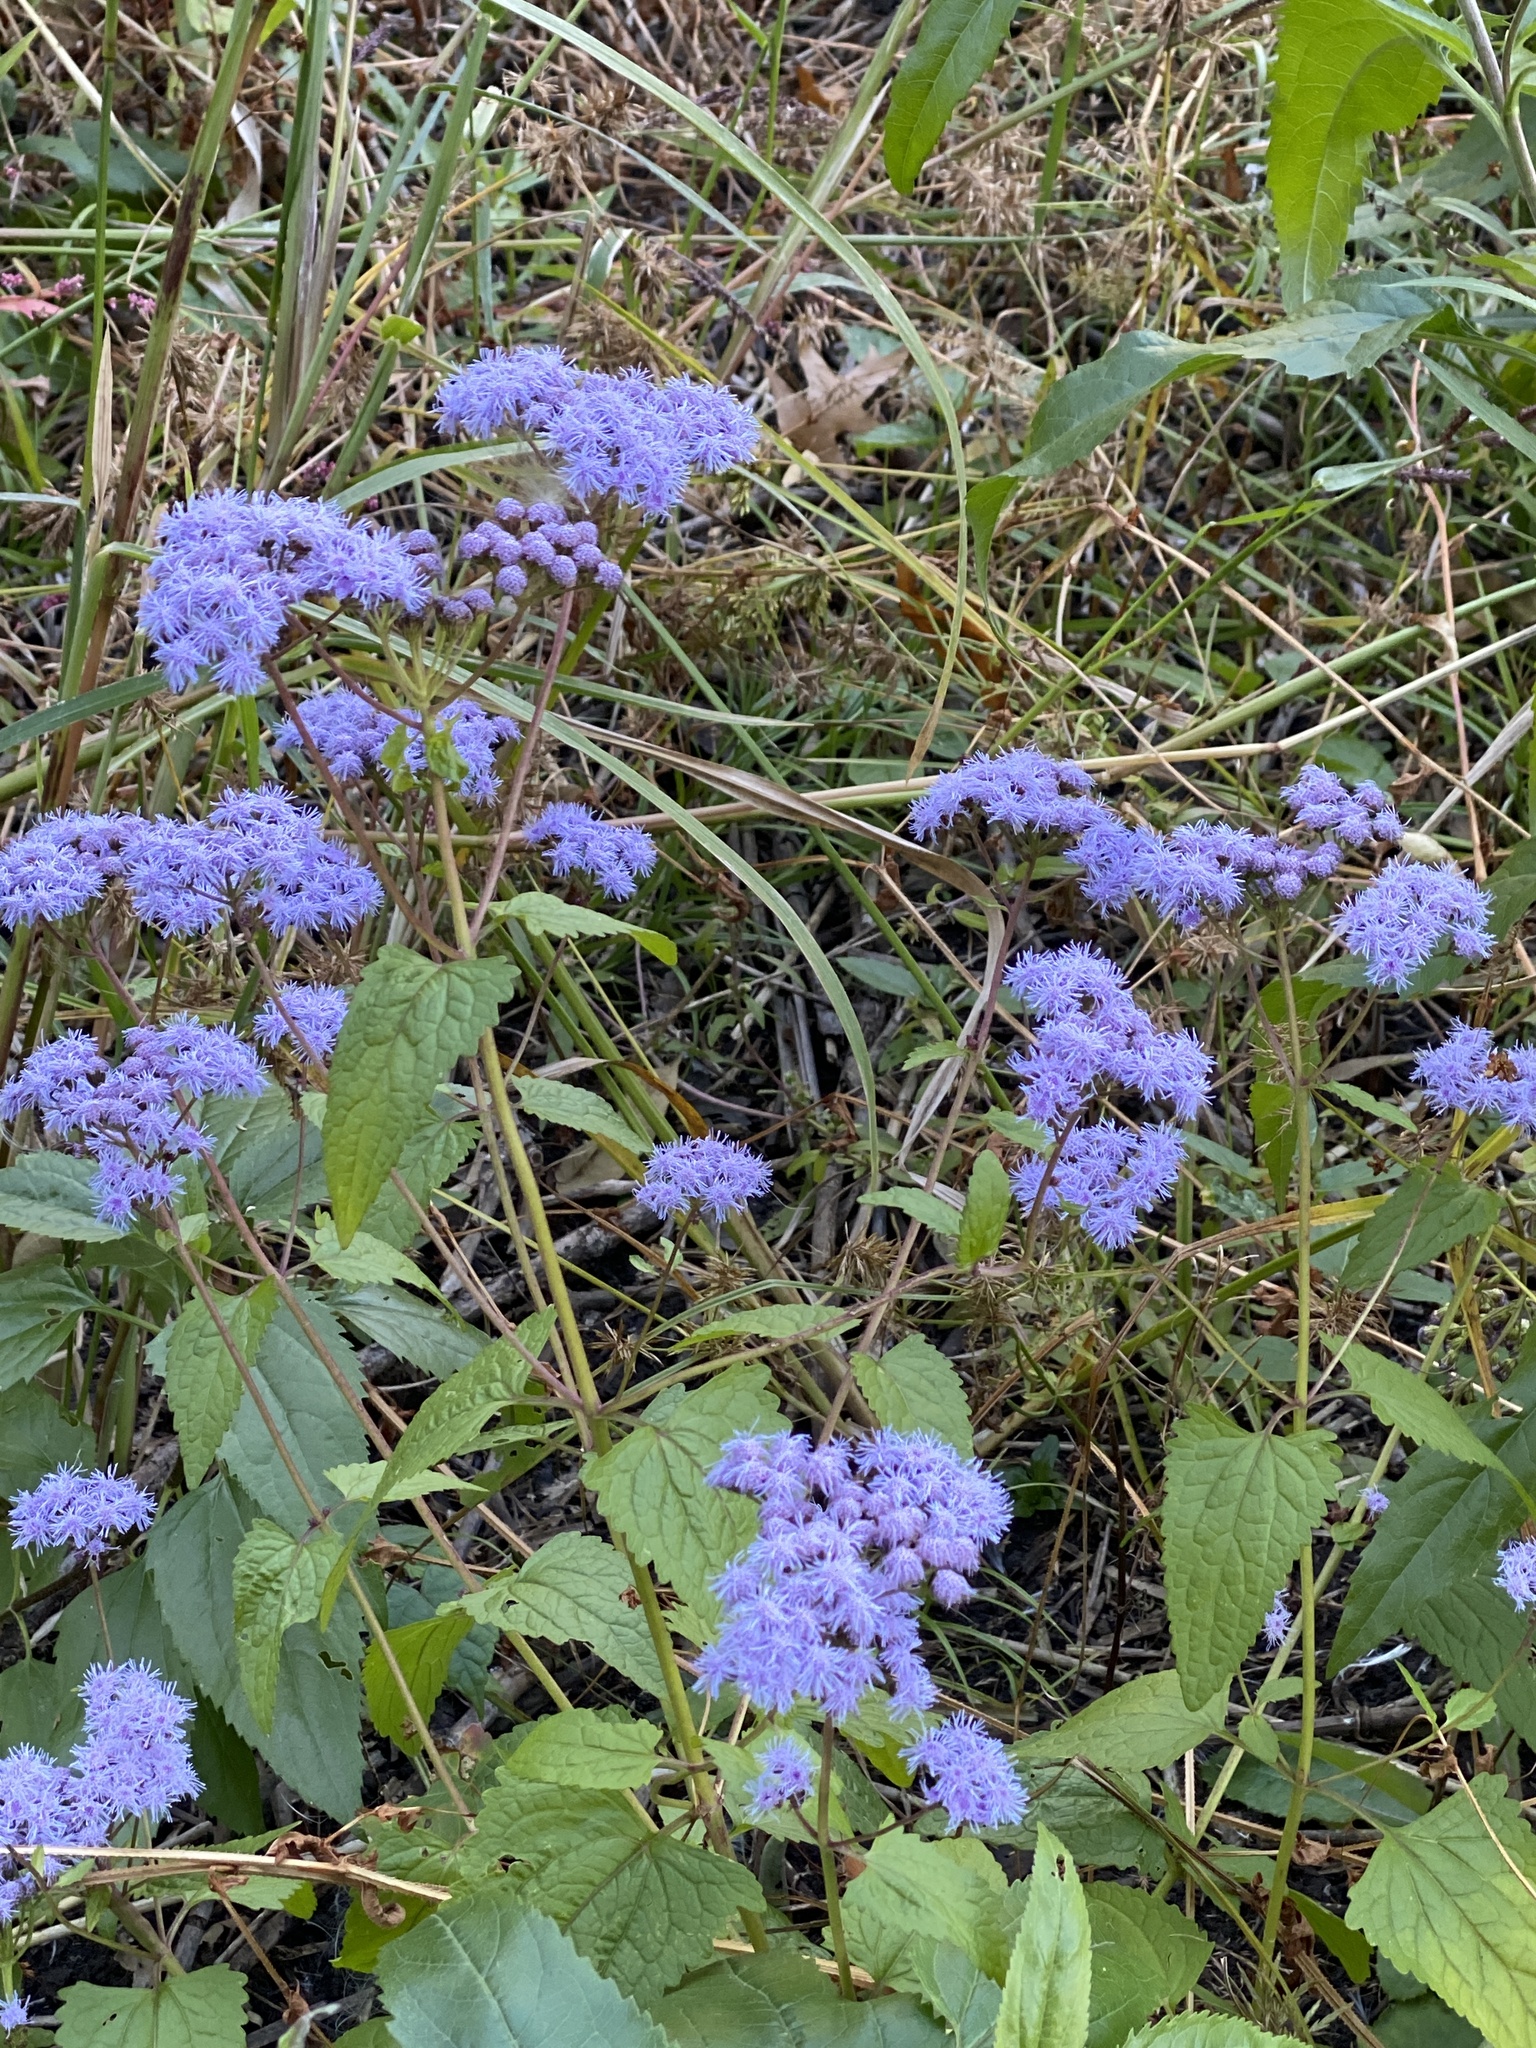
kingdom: Plantae
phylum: Tracheophyta
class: Magnoliopsida
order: Asterales
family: Asteraceae
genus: Conoclinium
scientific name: Conoclinium coelestinum
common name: Blue mistflower
